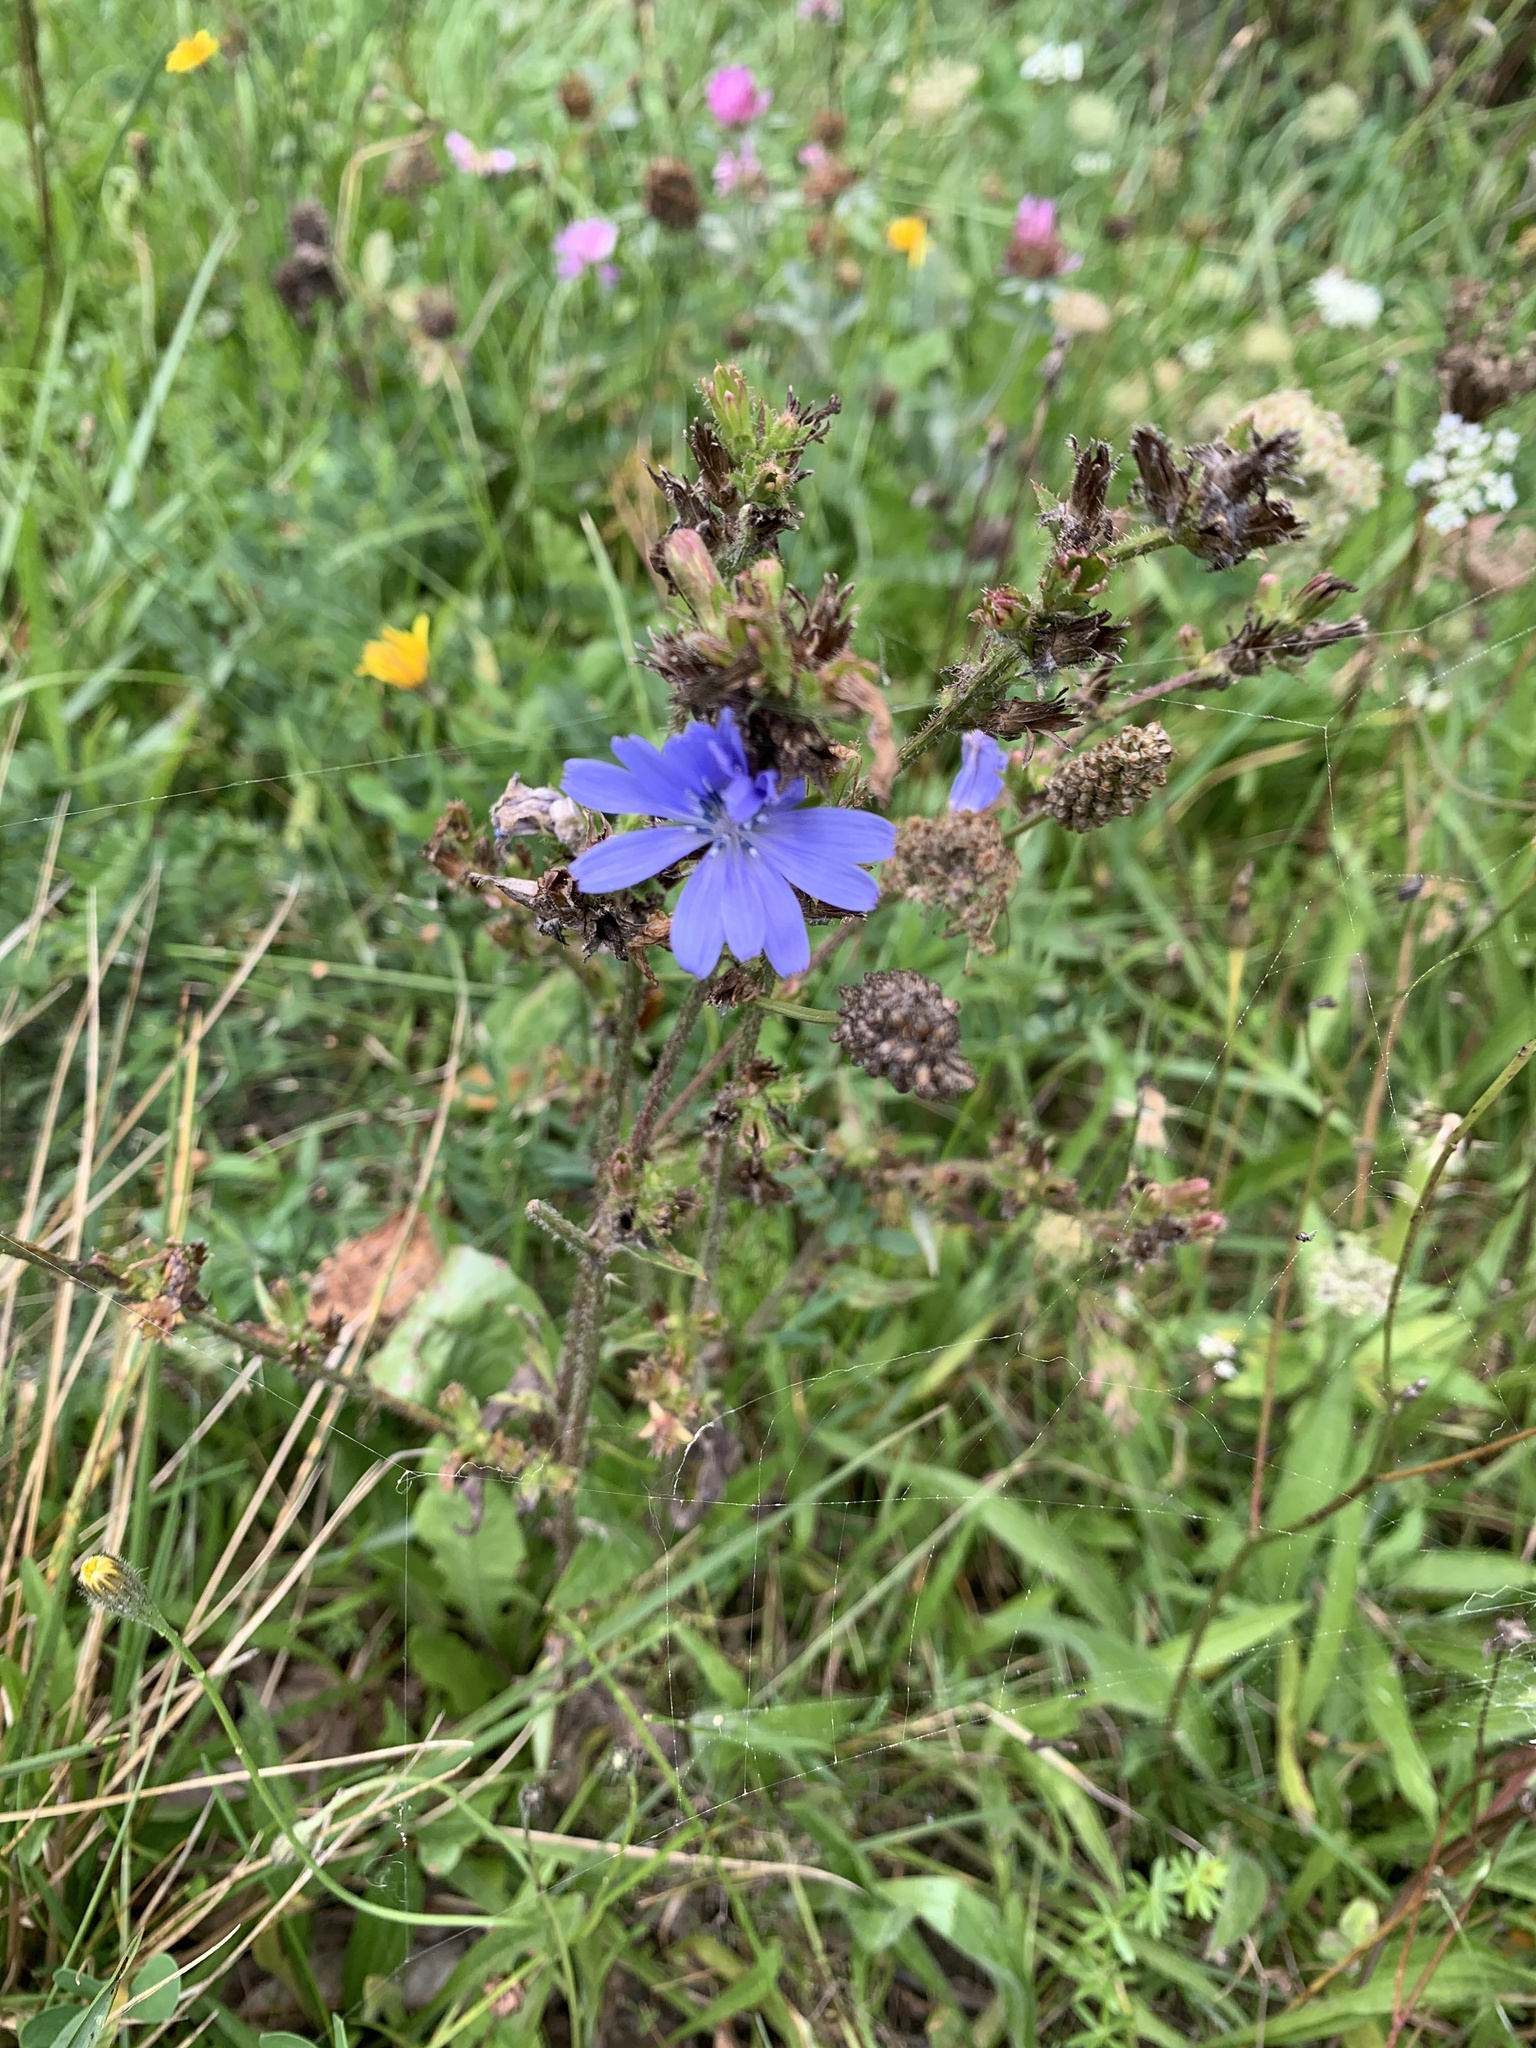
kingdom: Plantae
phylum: Tracheophyta
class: Magnoliopsida
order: Asterales
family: Asteraceae
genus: Cichorium
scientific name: Cichorium intybus
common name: Chicory
